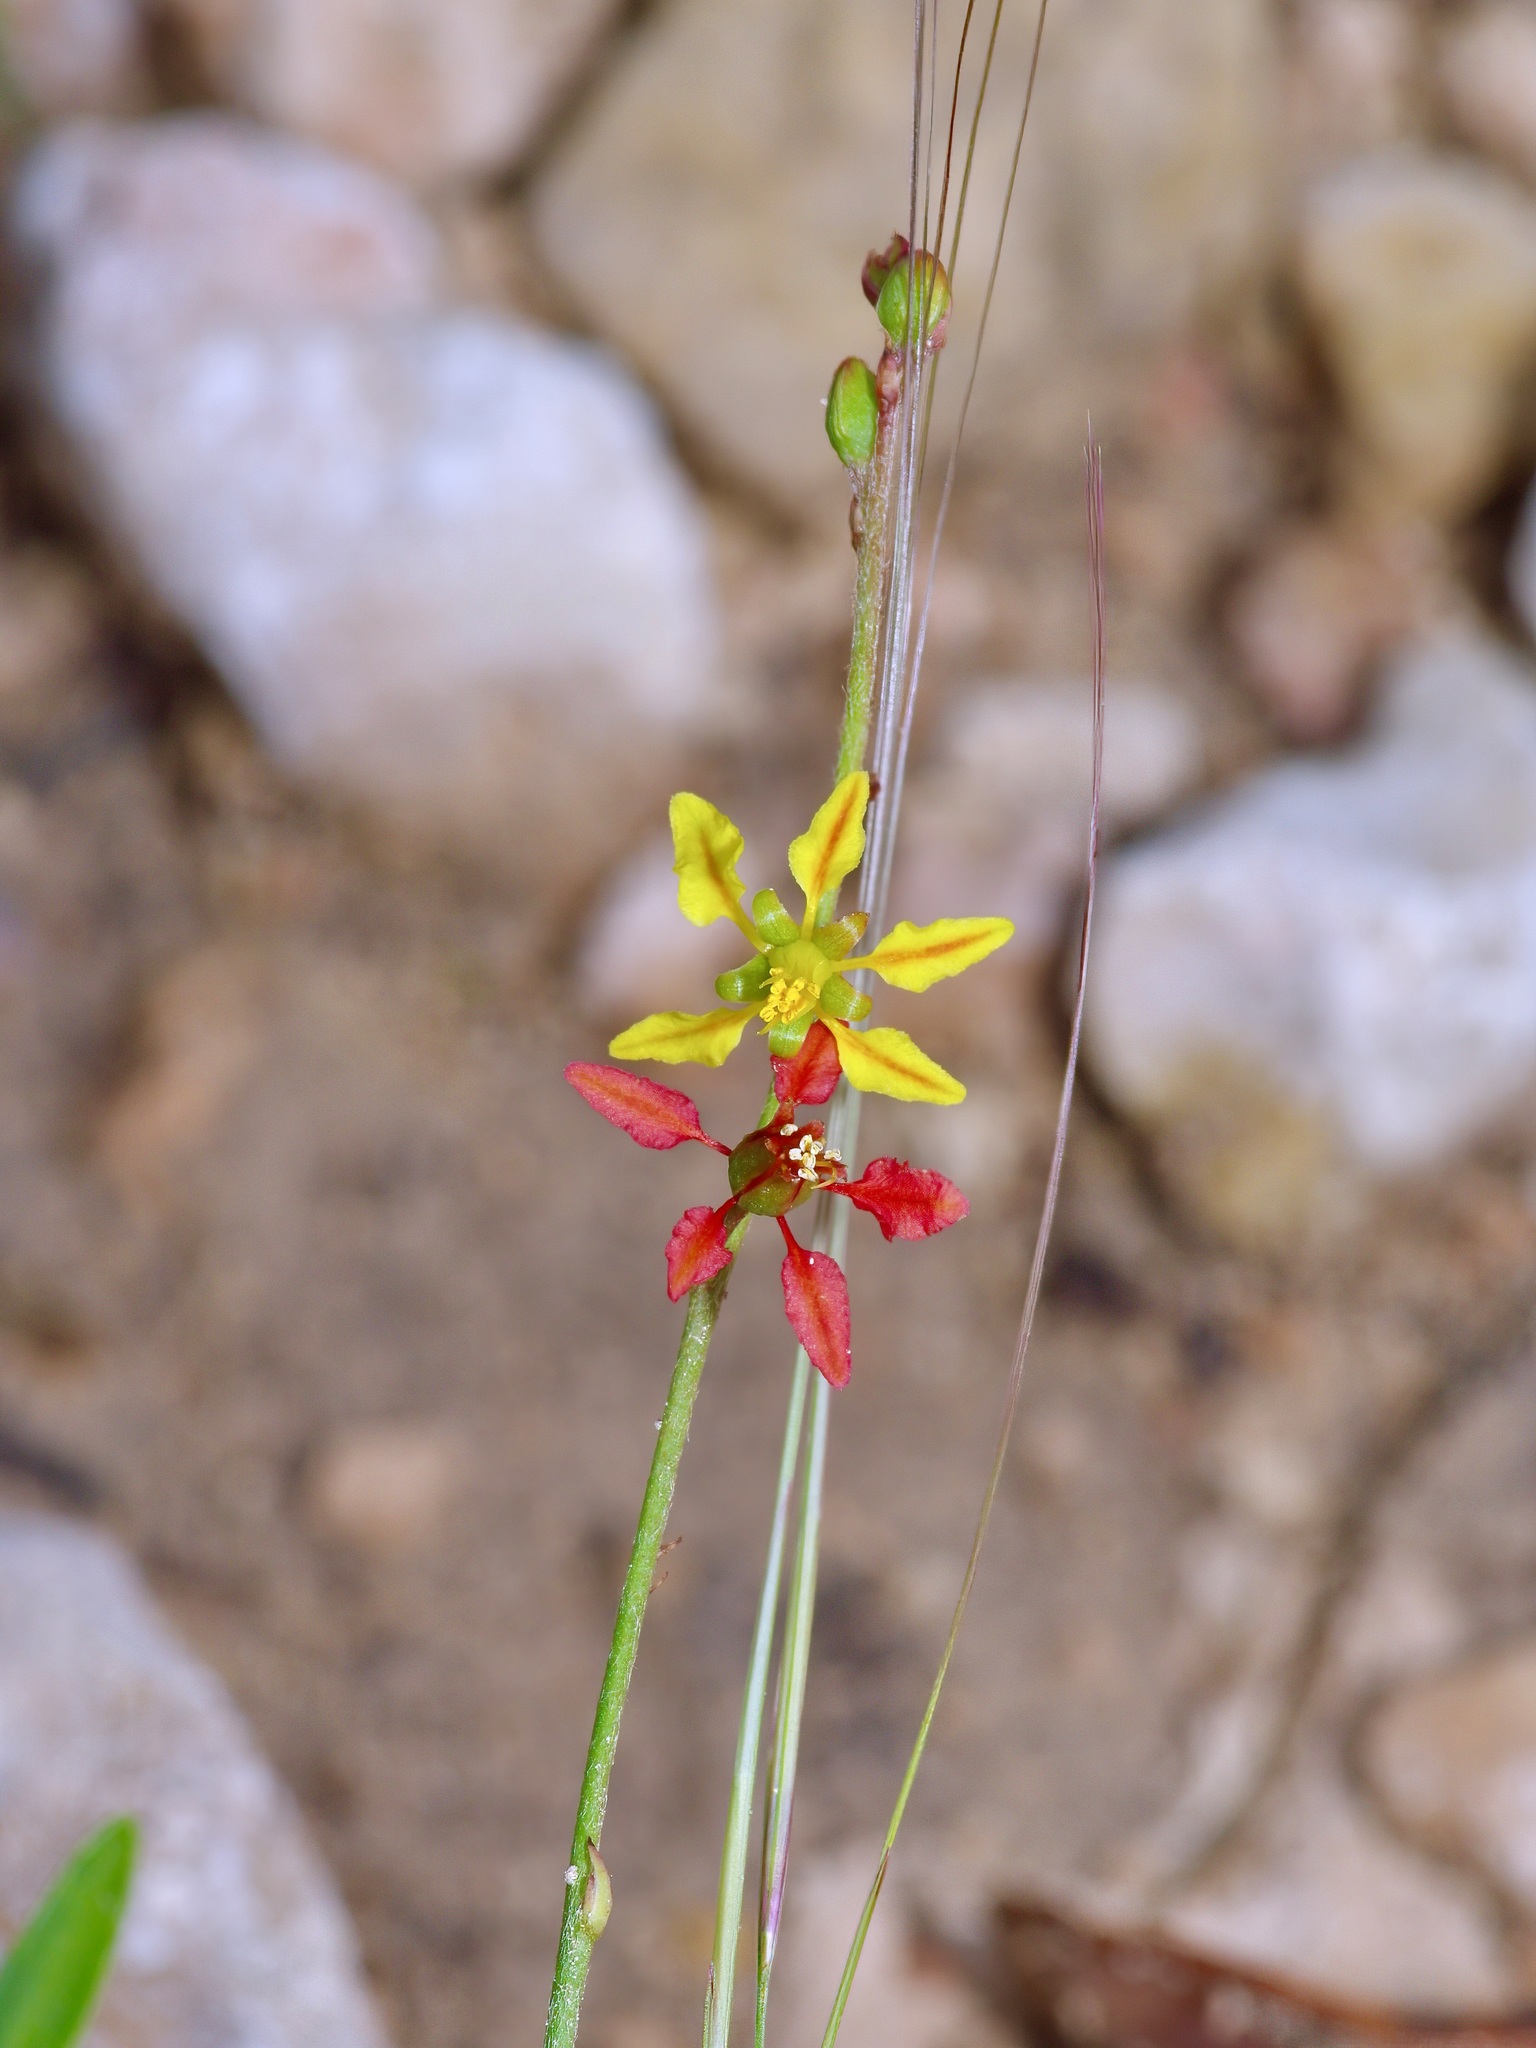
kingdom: Plantae
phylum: Tracheophyta
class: Magnoliopsida
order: Malpighiales
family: Malpighiaceae
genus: Galphimia
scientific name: Galphimia angustifolia
